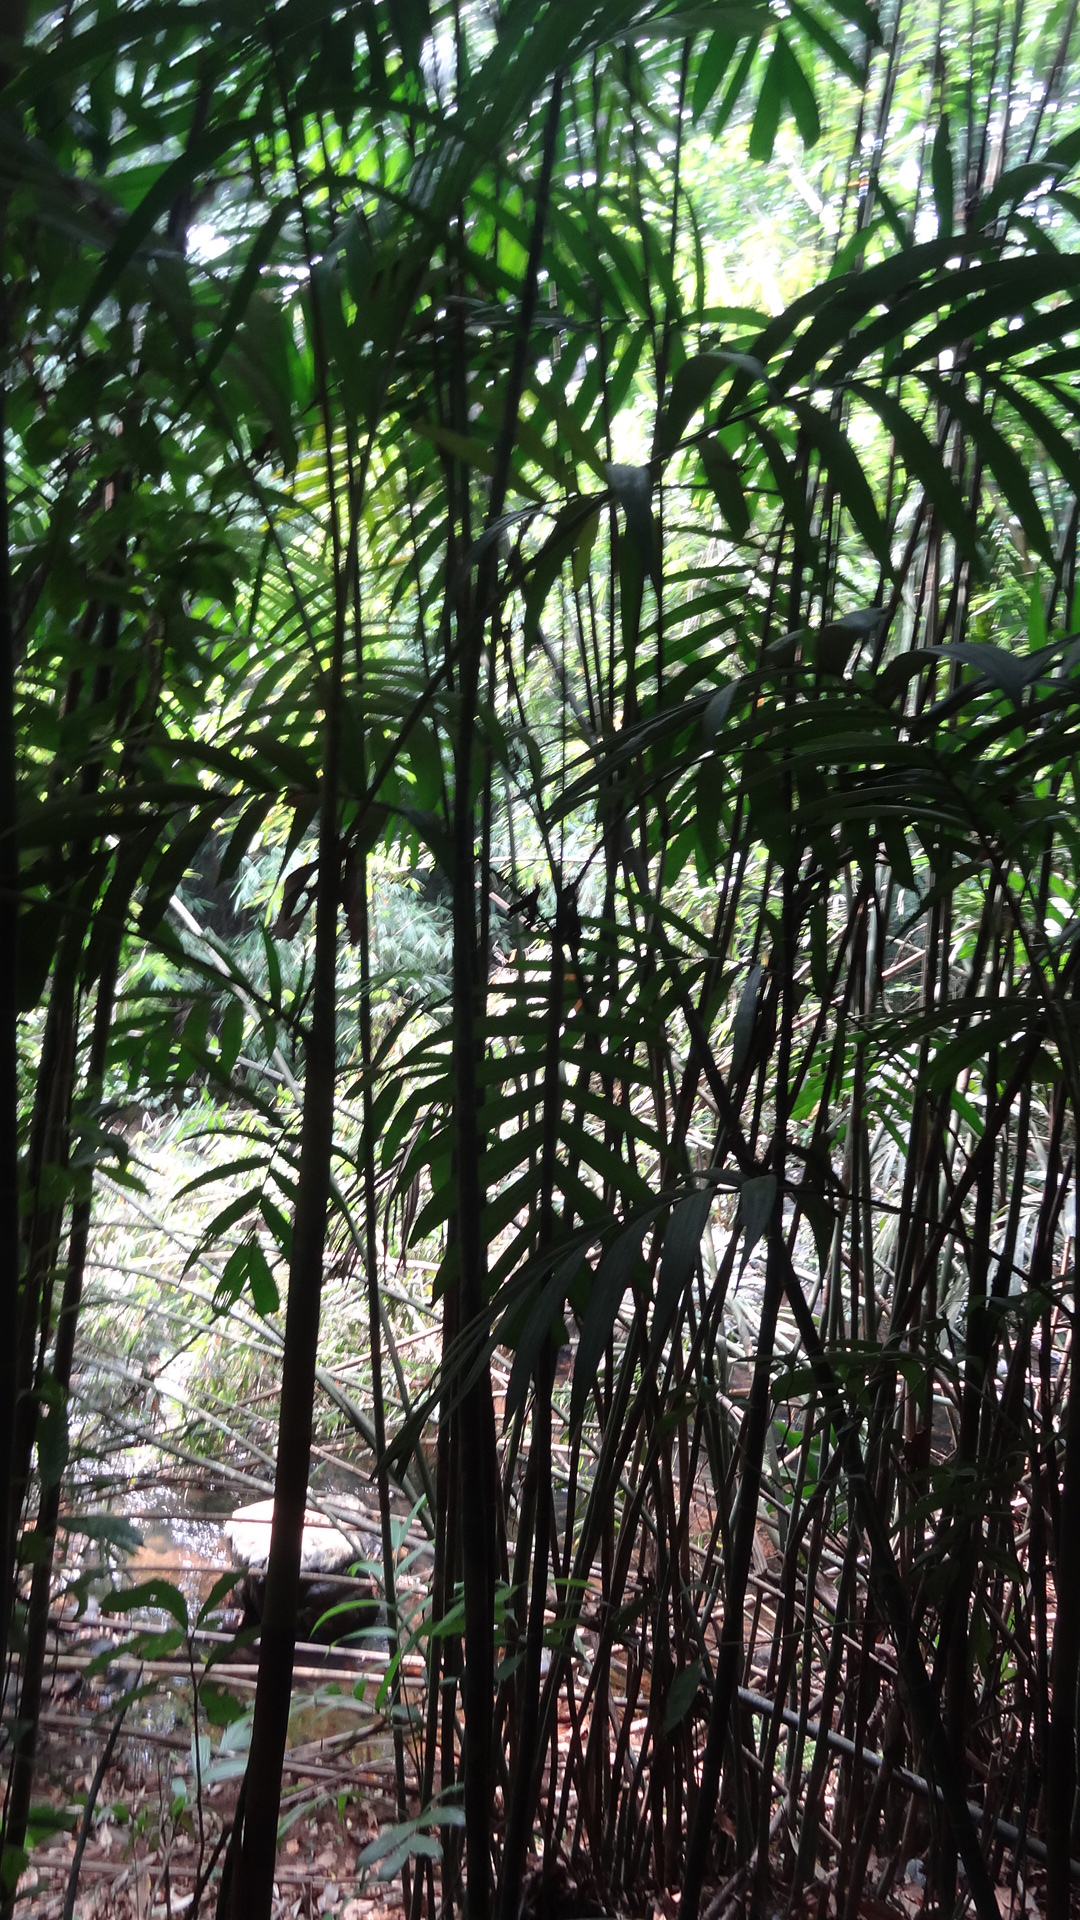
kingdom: Plantae
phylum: Tracheophyta
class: Liliopsida
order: Arecales
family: Arecaceae
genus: Pinanga
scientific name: Pinanga dicksonii
